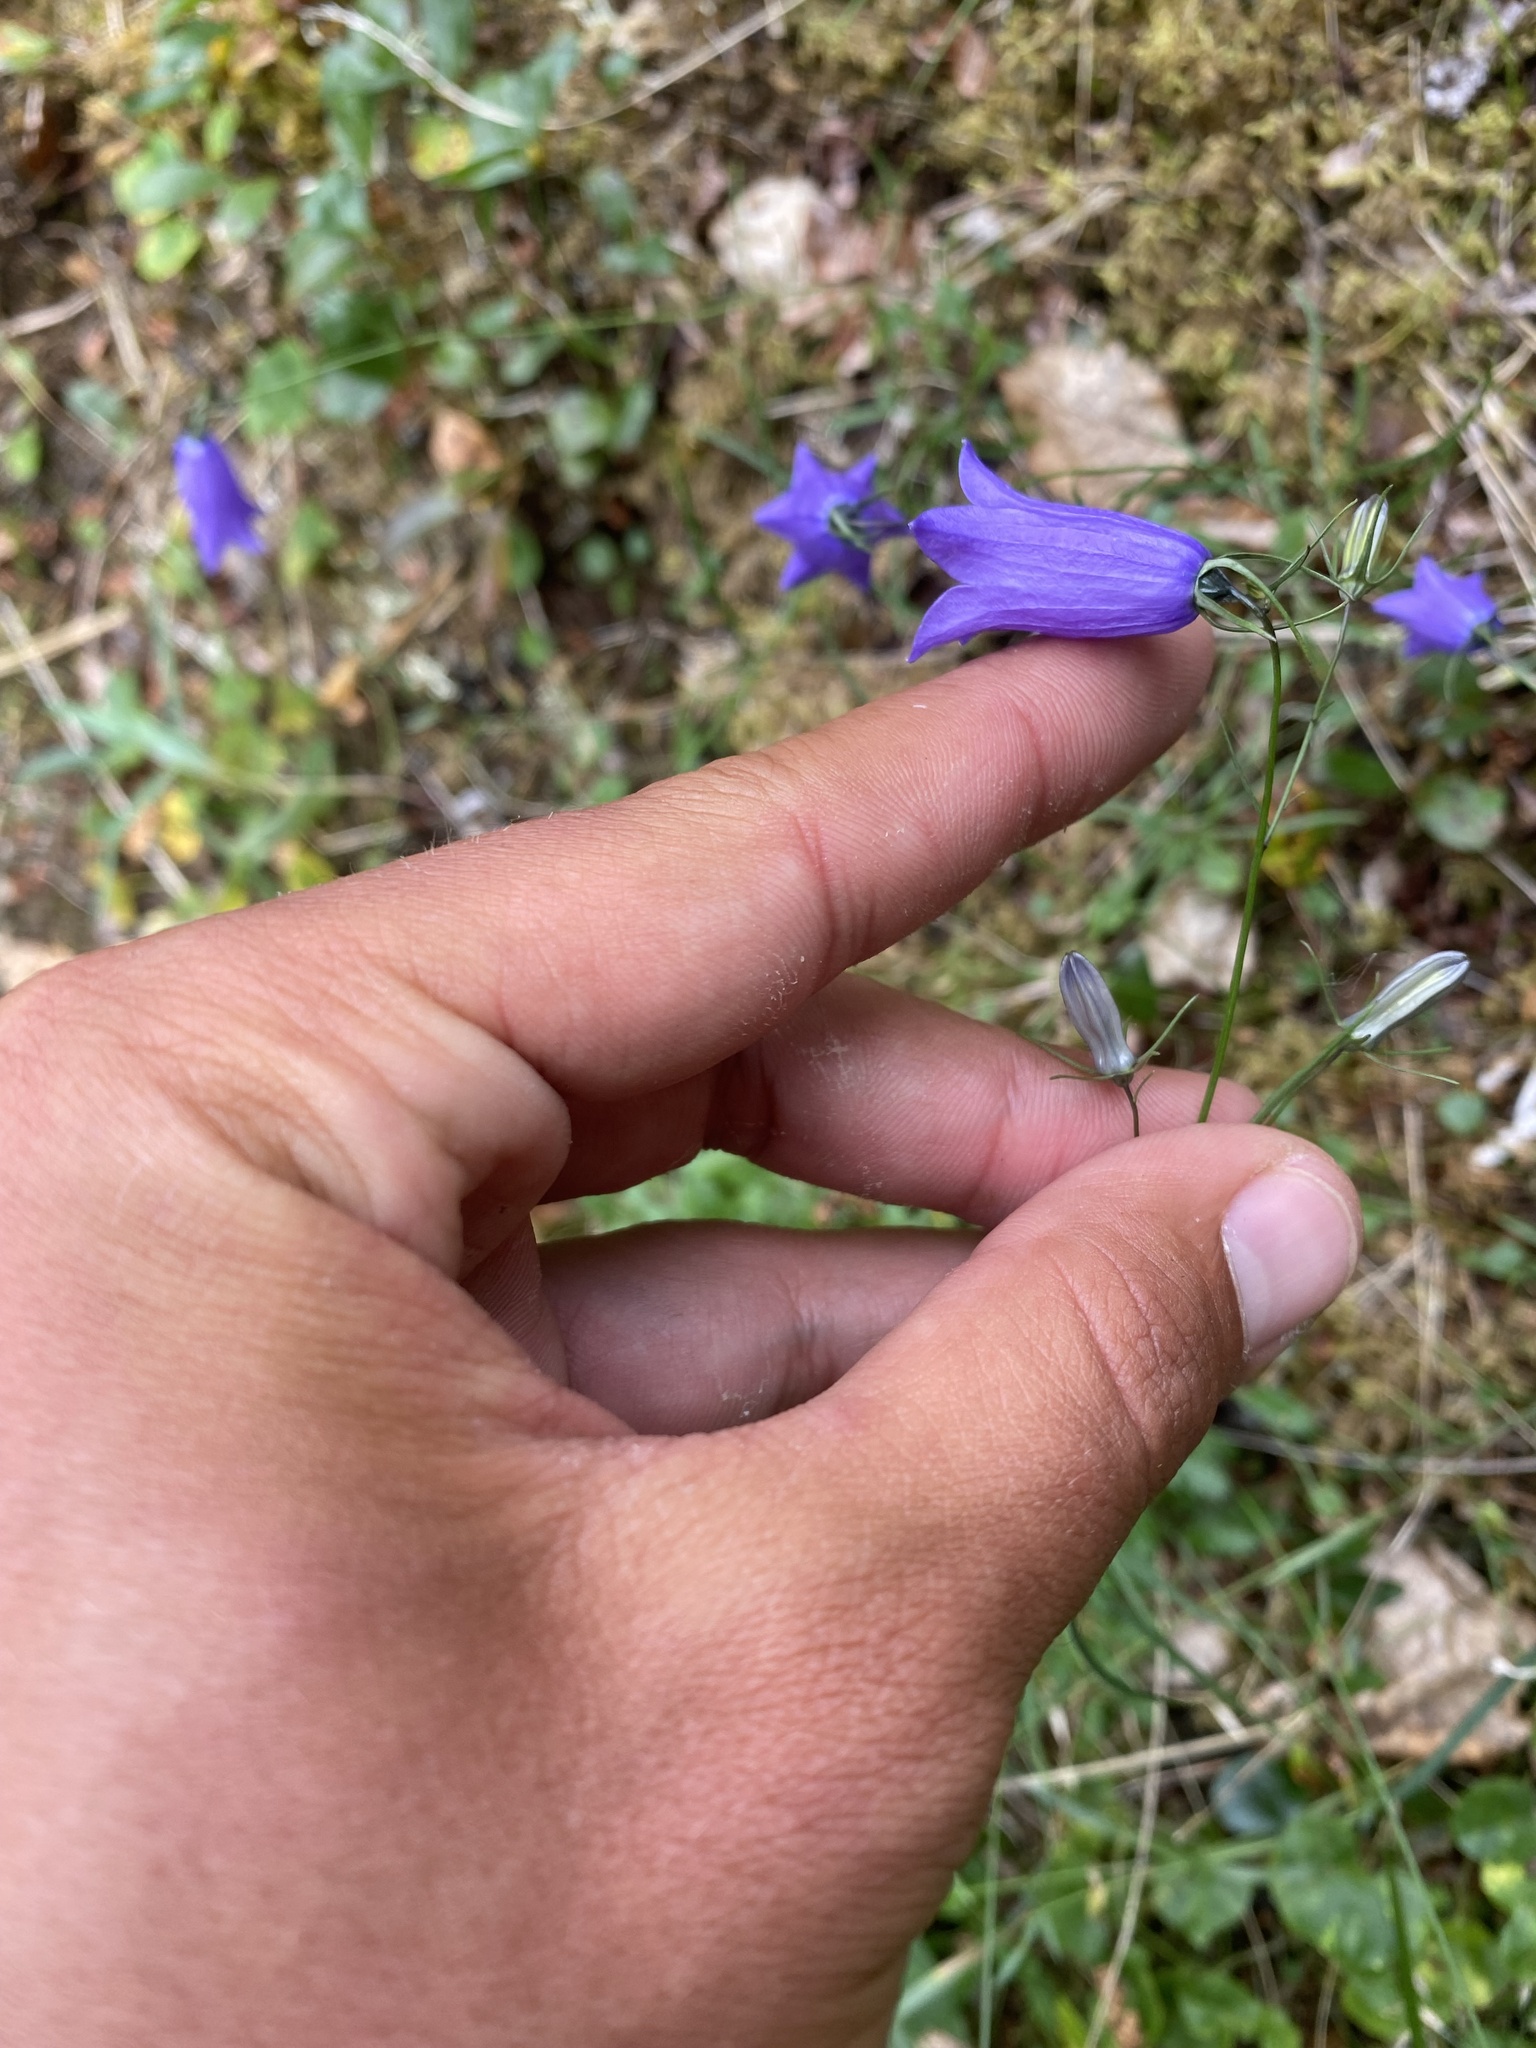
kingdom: Plantae
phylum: Tracheophyta
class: Magnoliopsida
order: Asterales
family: Campanulaceae
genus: Campanula
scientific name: Campanula rotundifolia
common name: Harebell
